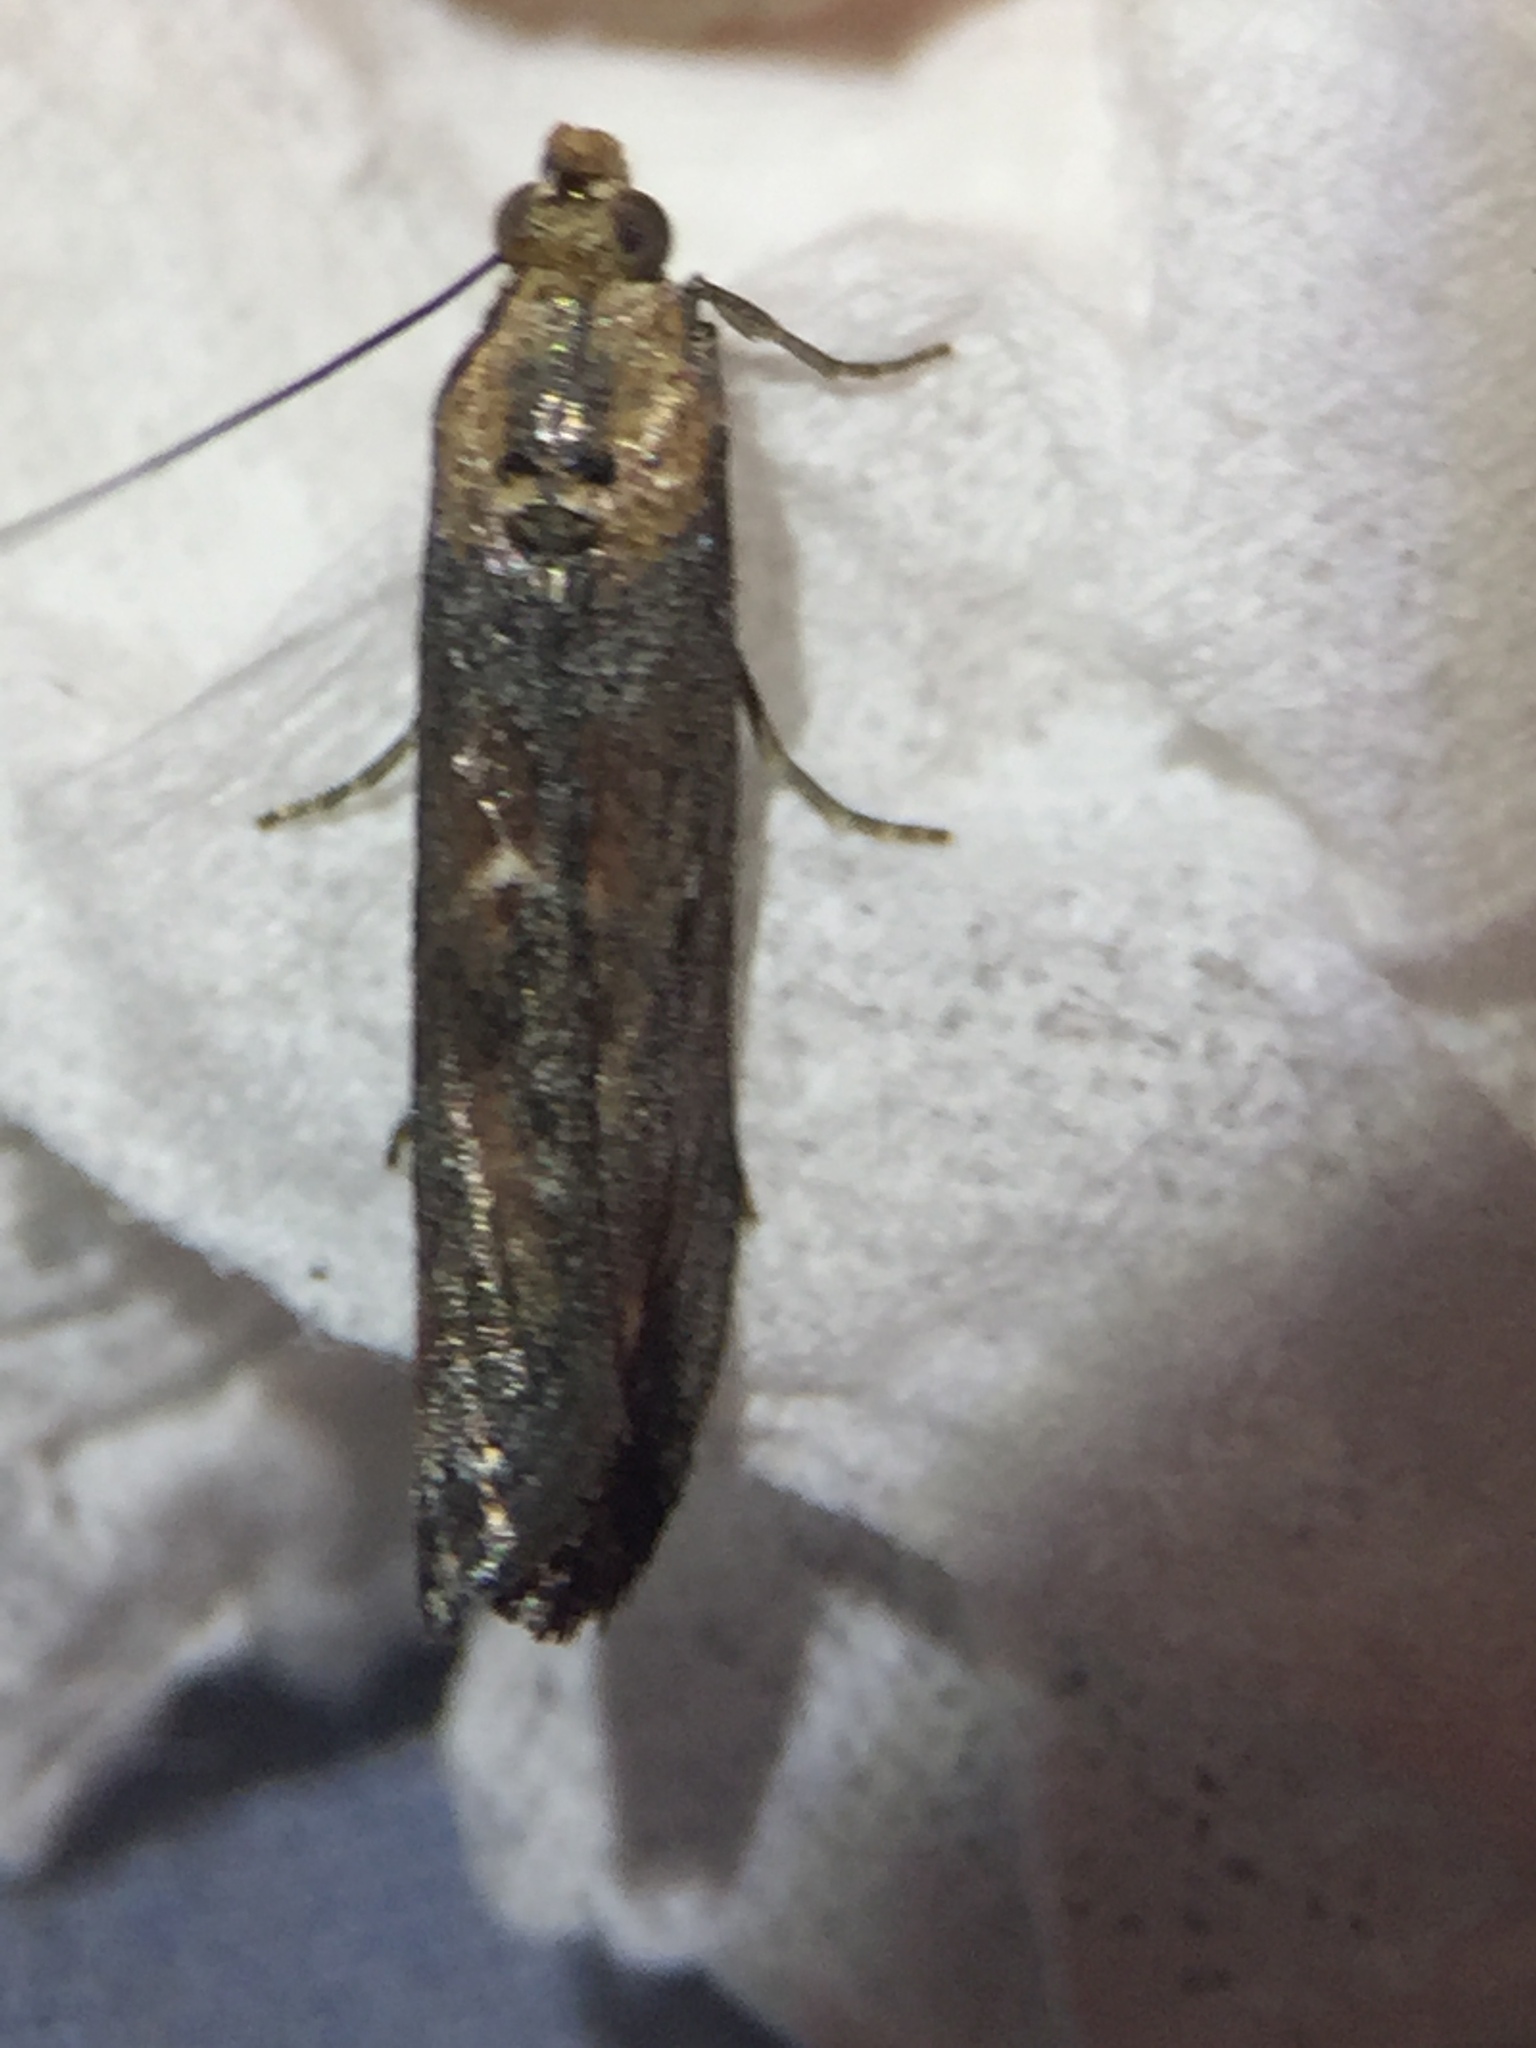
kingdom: Animalia
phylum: Arthropoda
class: Insecta
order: Lepidoptera
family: Pyralidae
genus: Morosaphycita
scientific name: Morosaphycita oculiferella
